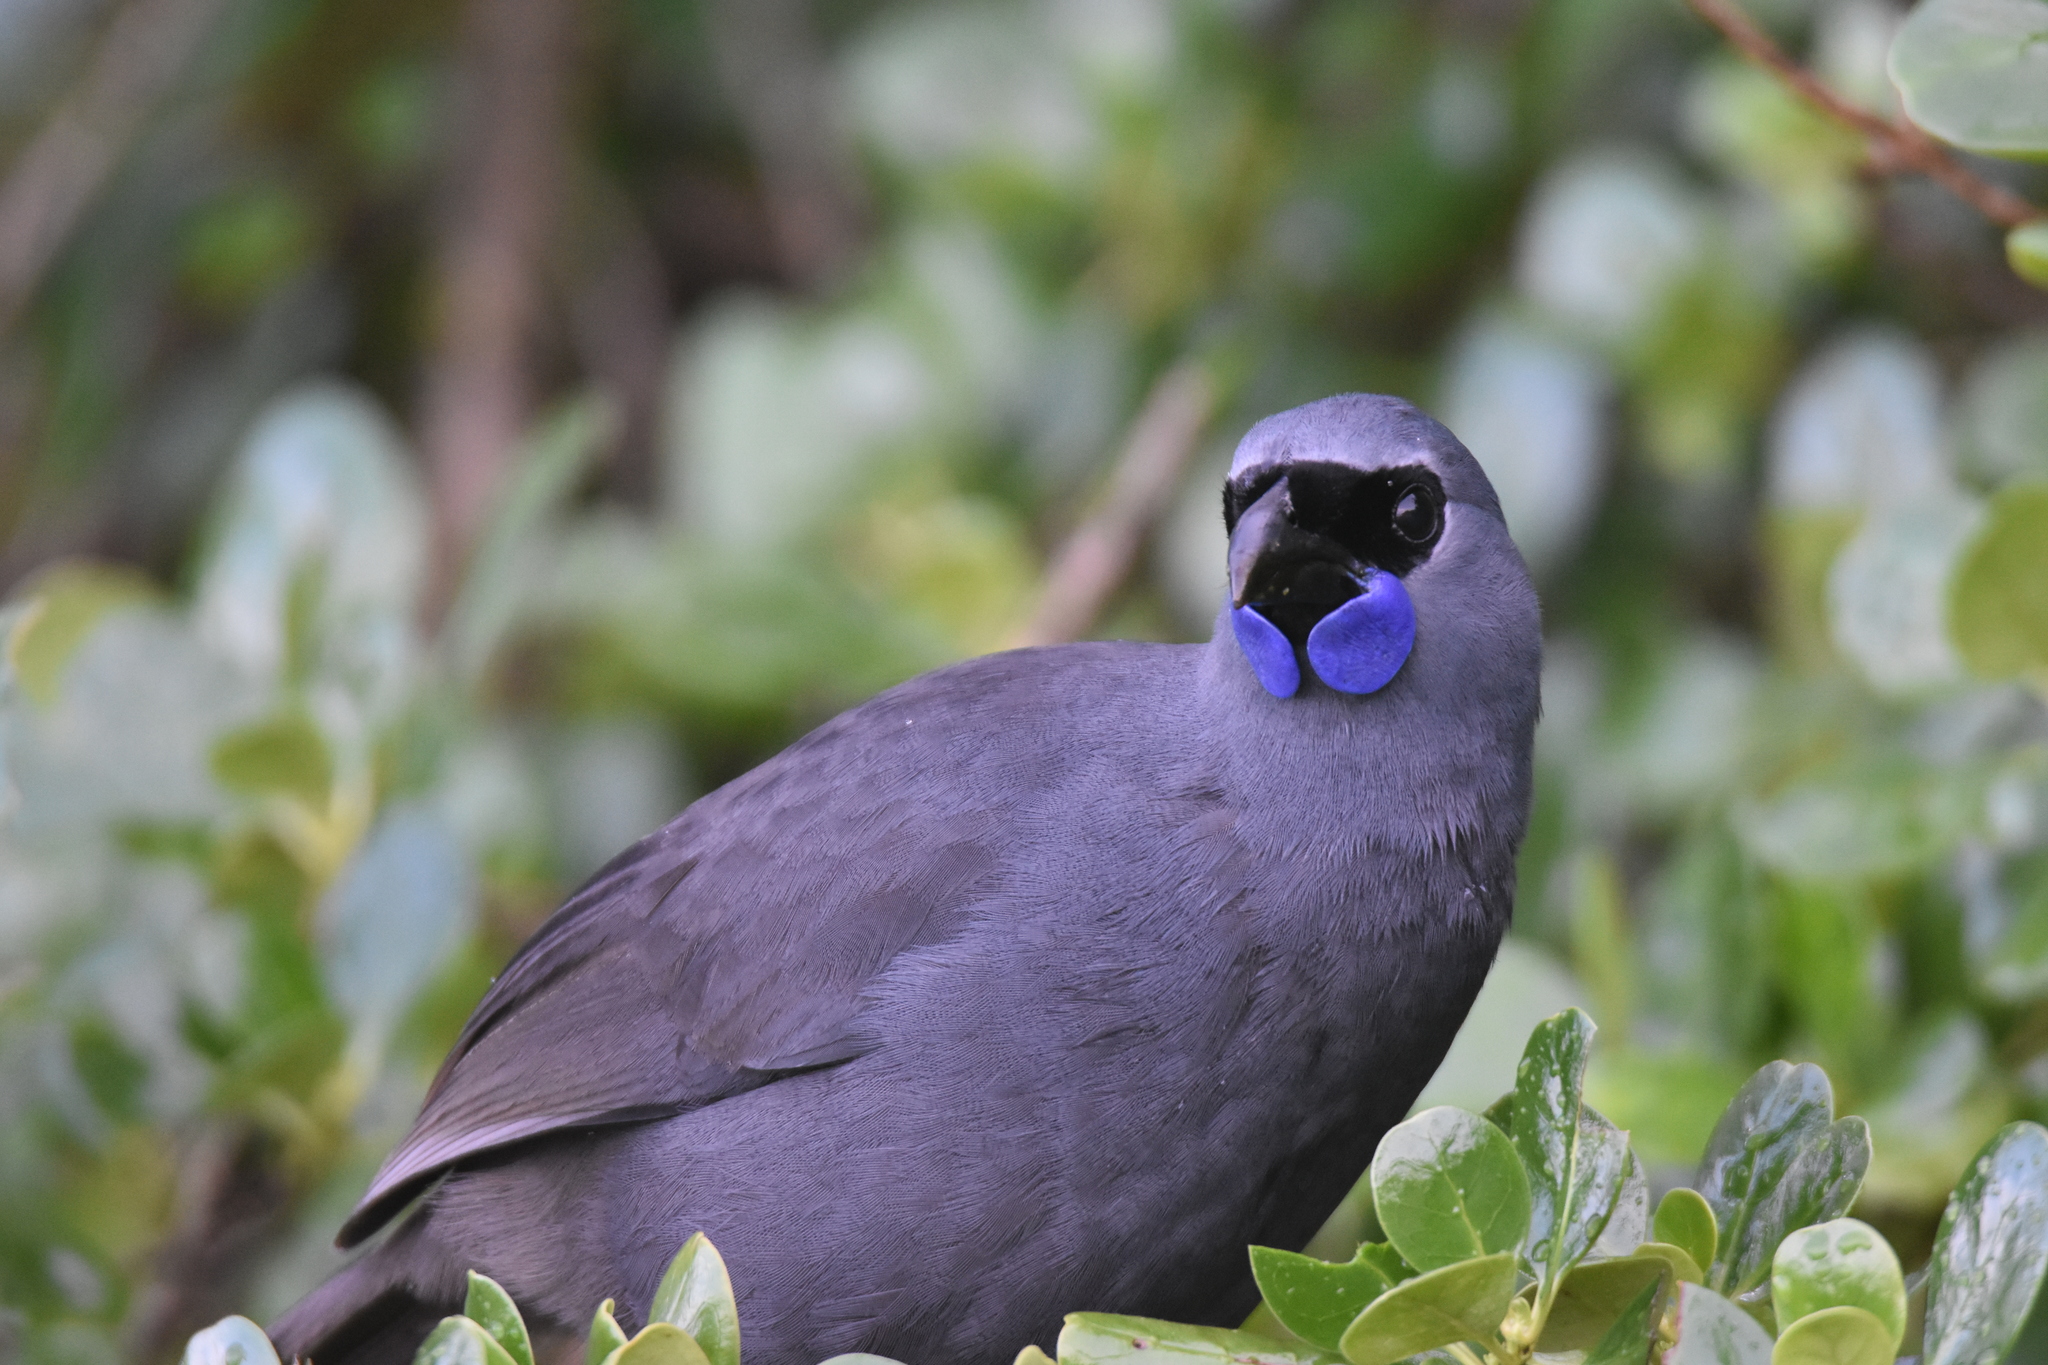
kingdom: Animalia
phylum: Chordata
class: Aves
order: Passeriformes
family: Callaeatidae
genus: Callaeas
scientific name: Callaeas cinereus
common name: South island kokako
